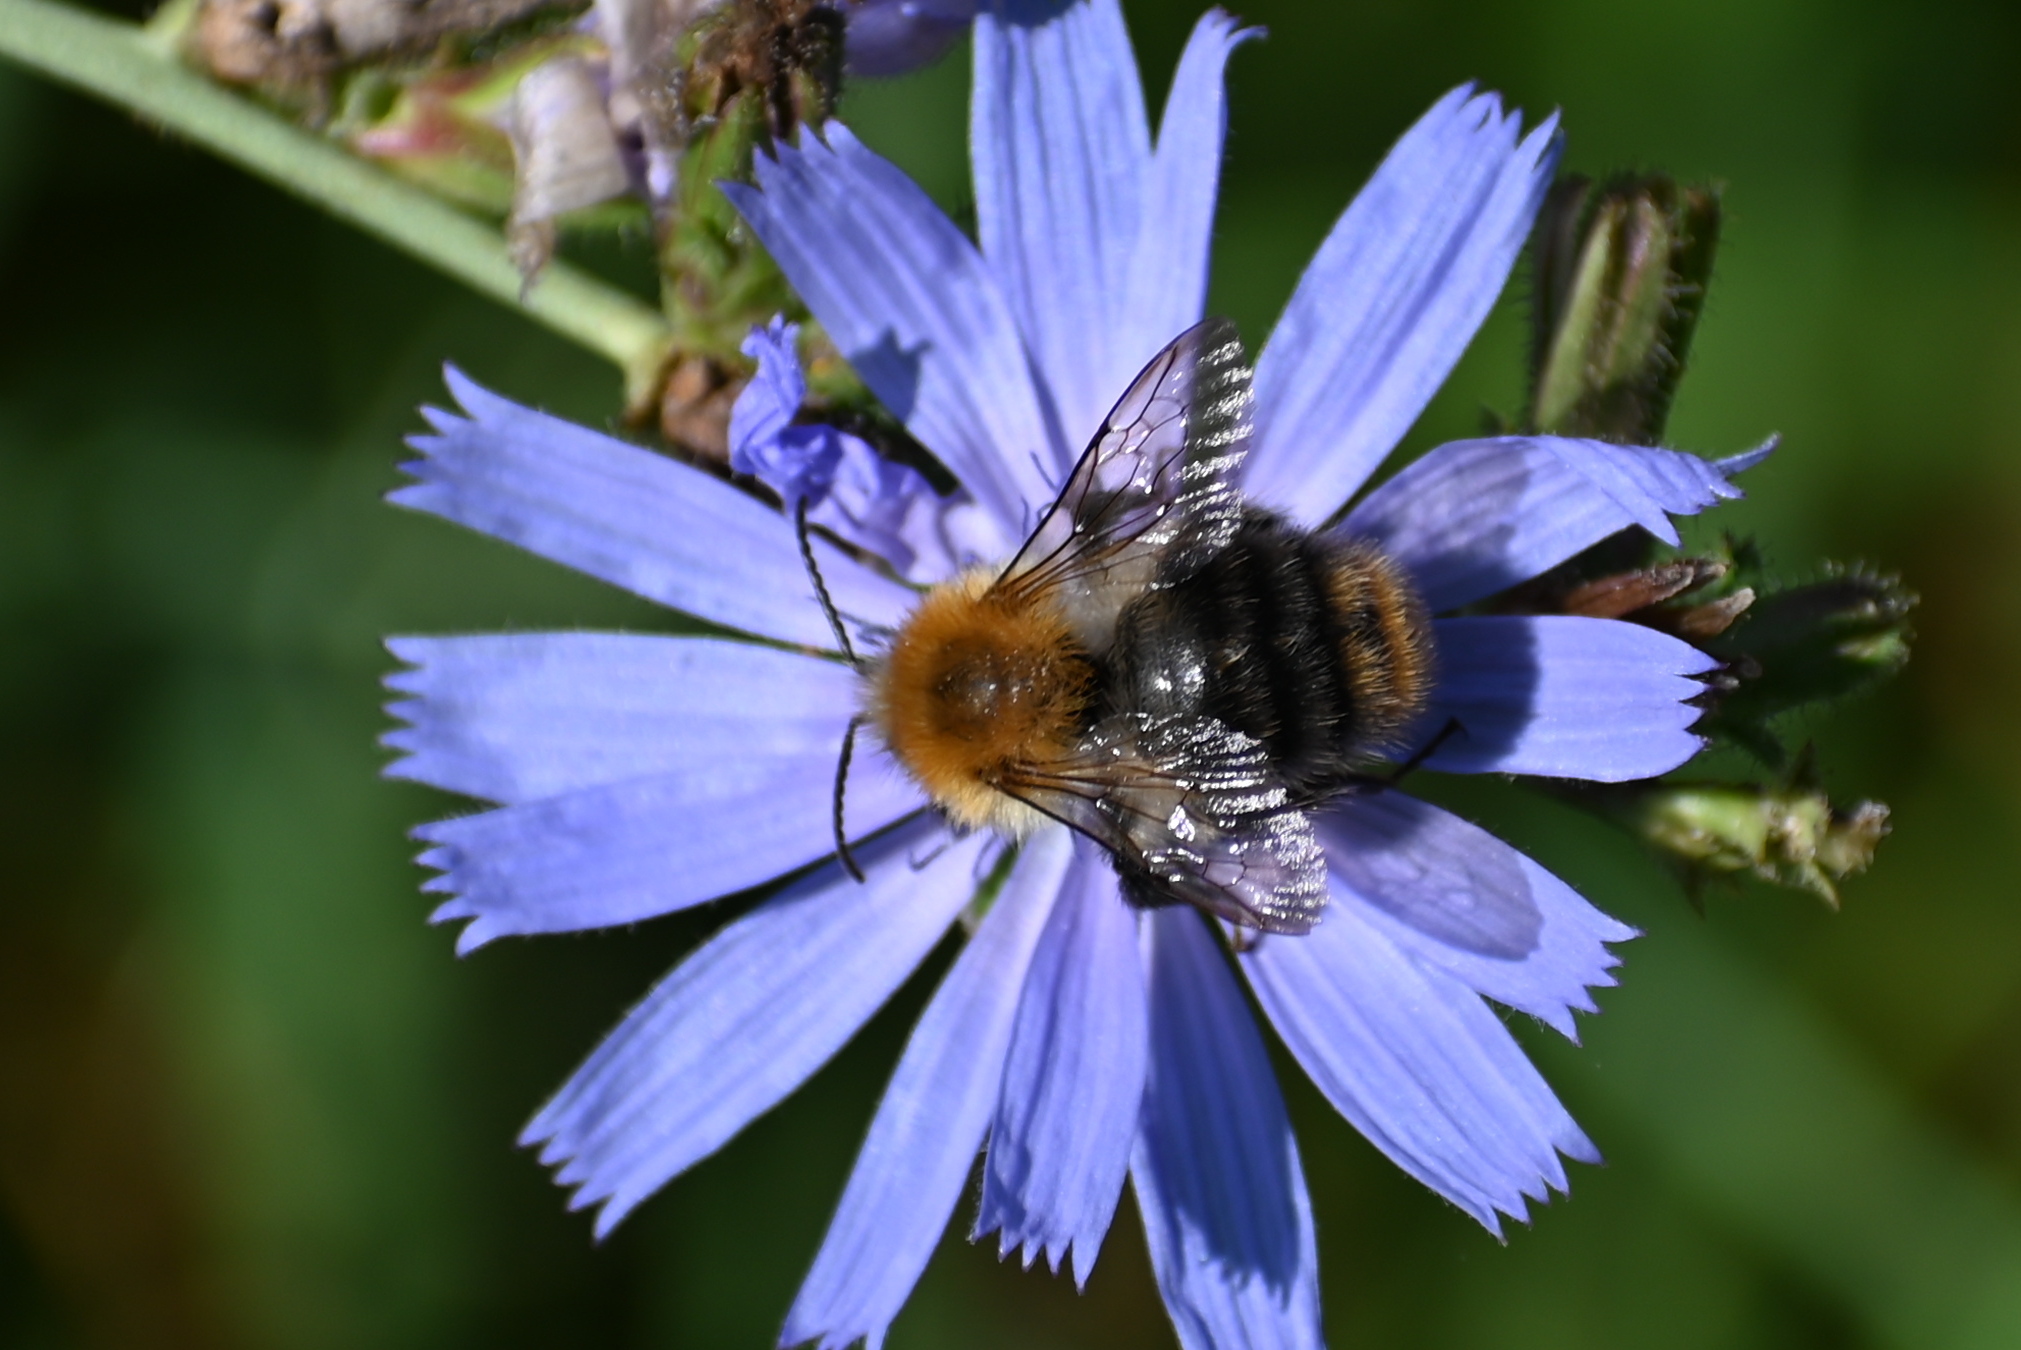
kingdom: Animalia
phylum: Arthropoda
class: Insecta
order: Hymenoptera
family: Apidae
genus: Bombus
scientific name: Bombus pascuorum
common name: Common carder bee
